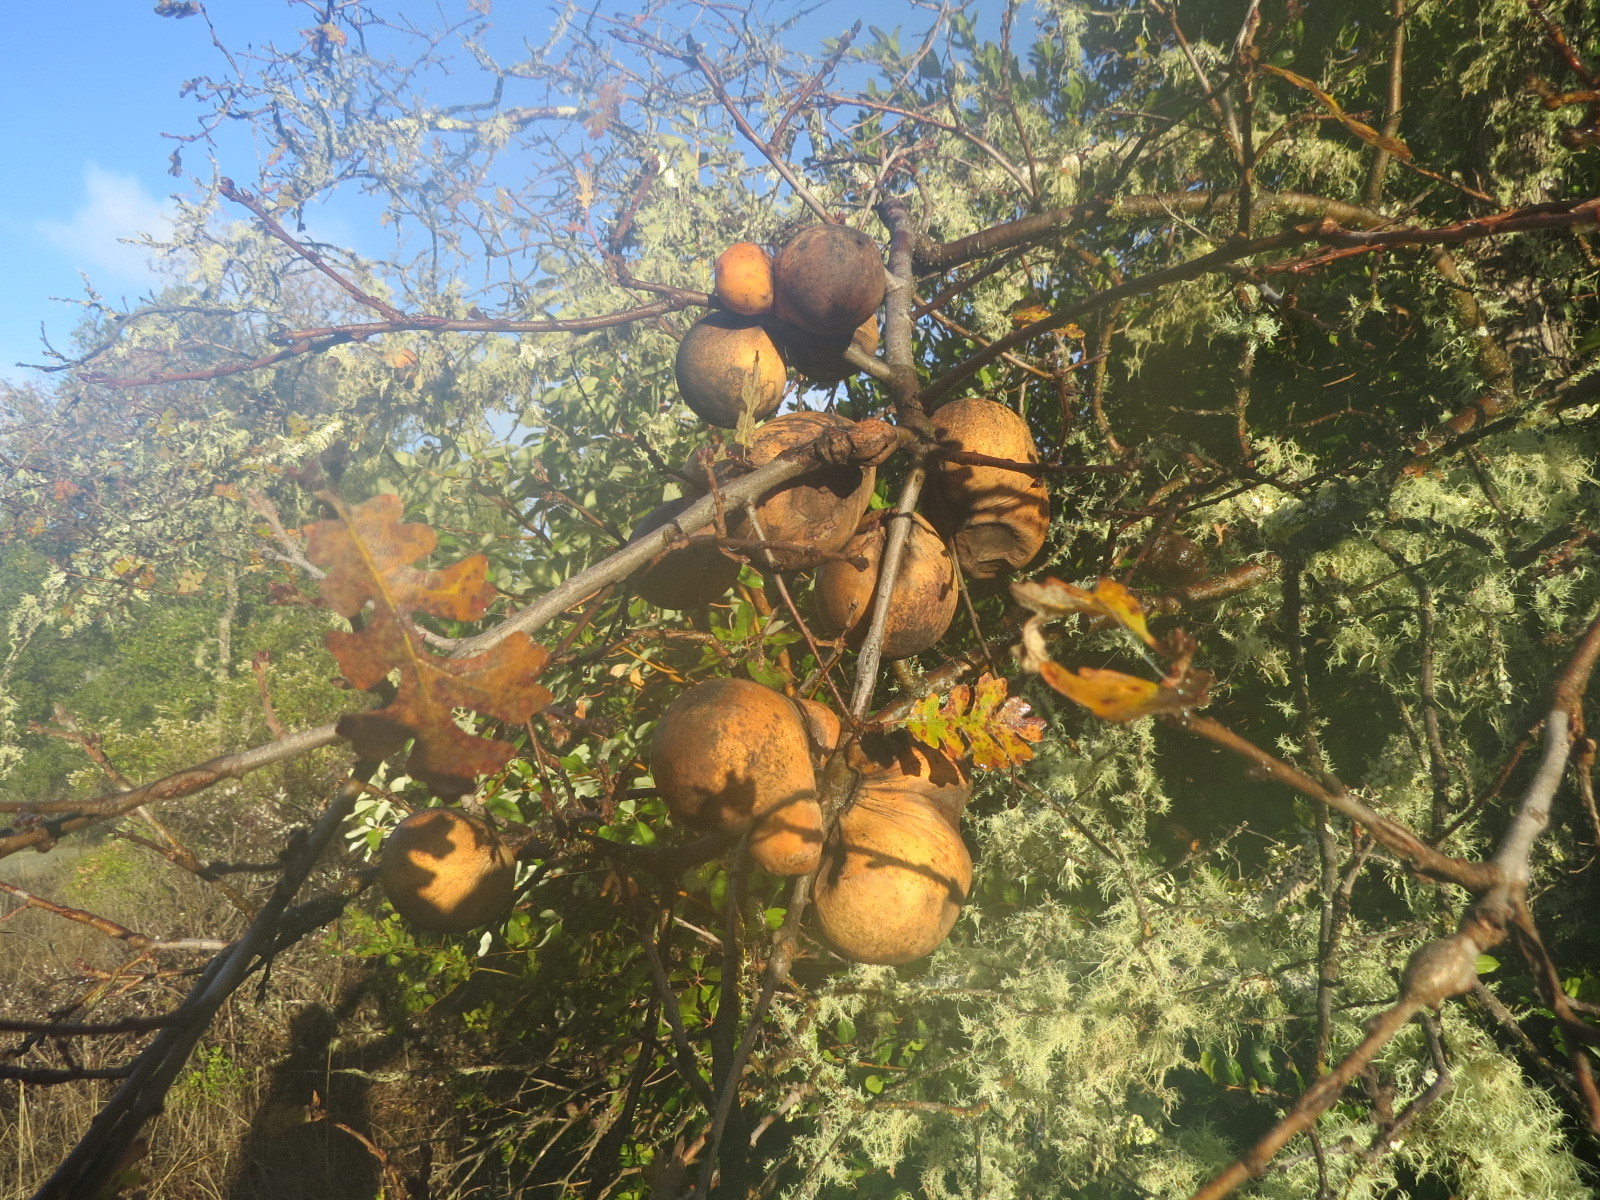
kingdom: Animalia
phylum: Arthropoda
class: Insecta
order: Hymenoptera
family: Cynipidae
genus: Andricus
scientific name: Andricus quercuscalifornicus
